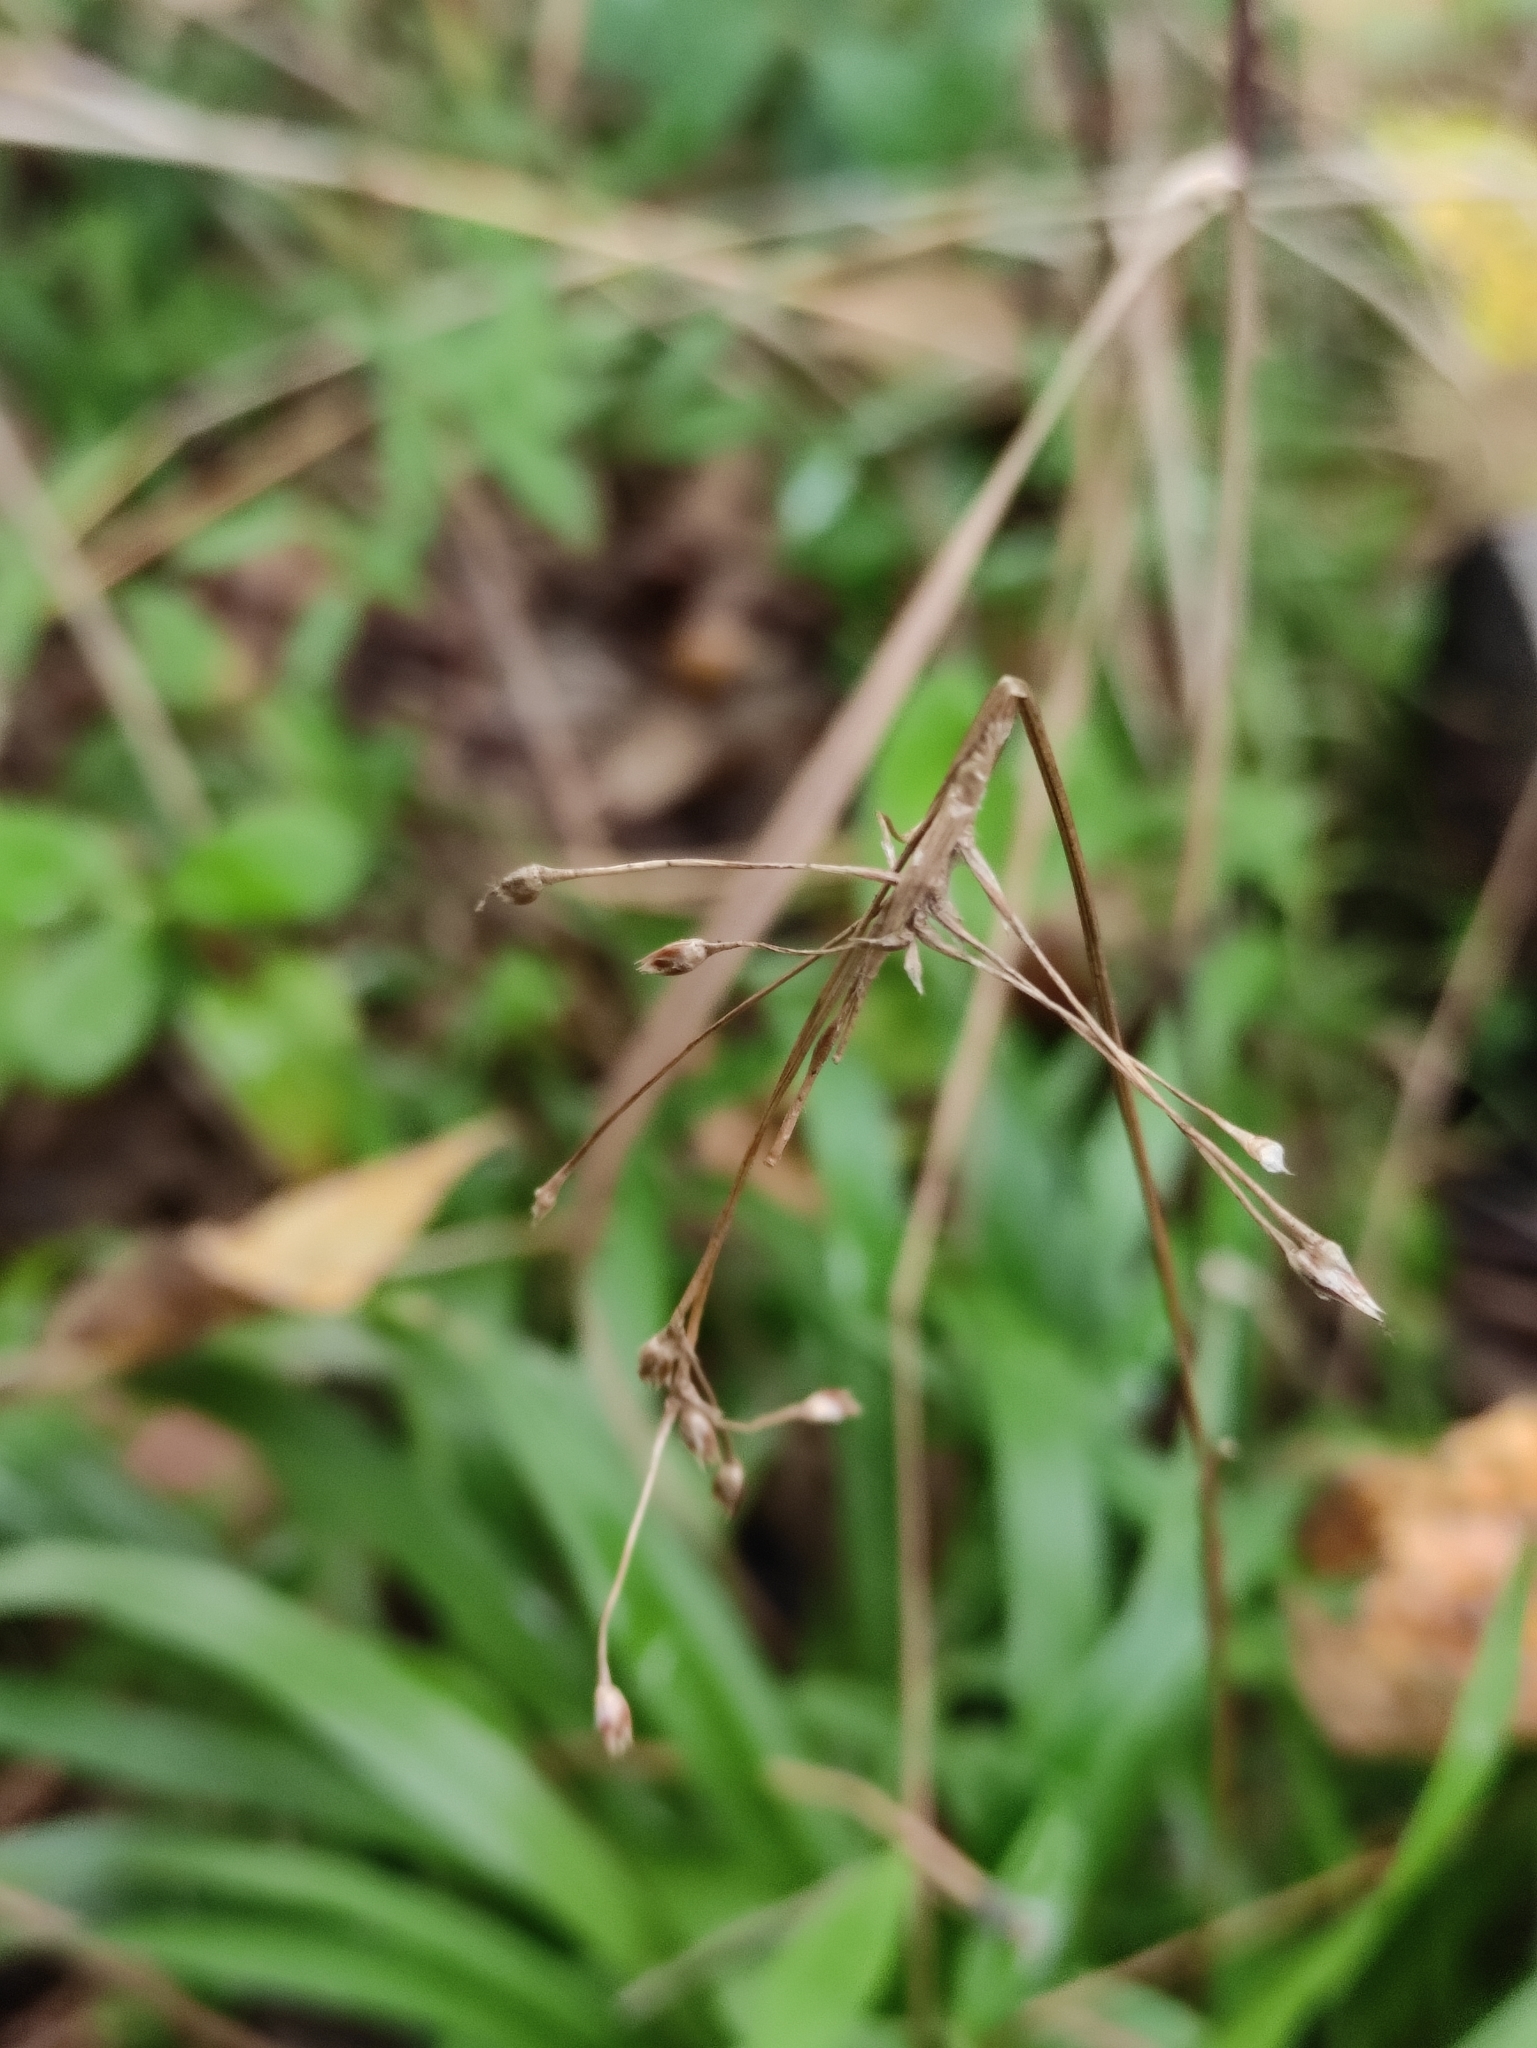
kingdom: Plantae
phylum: Tracheophyta
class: Liliopsida
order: Poales
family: Juncaceae
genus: Luzula
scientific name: Luzula pilosa
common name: Hairy wood-rush
